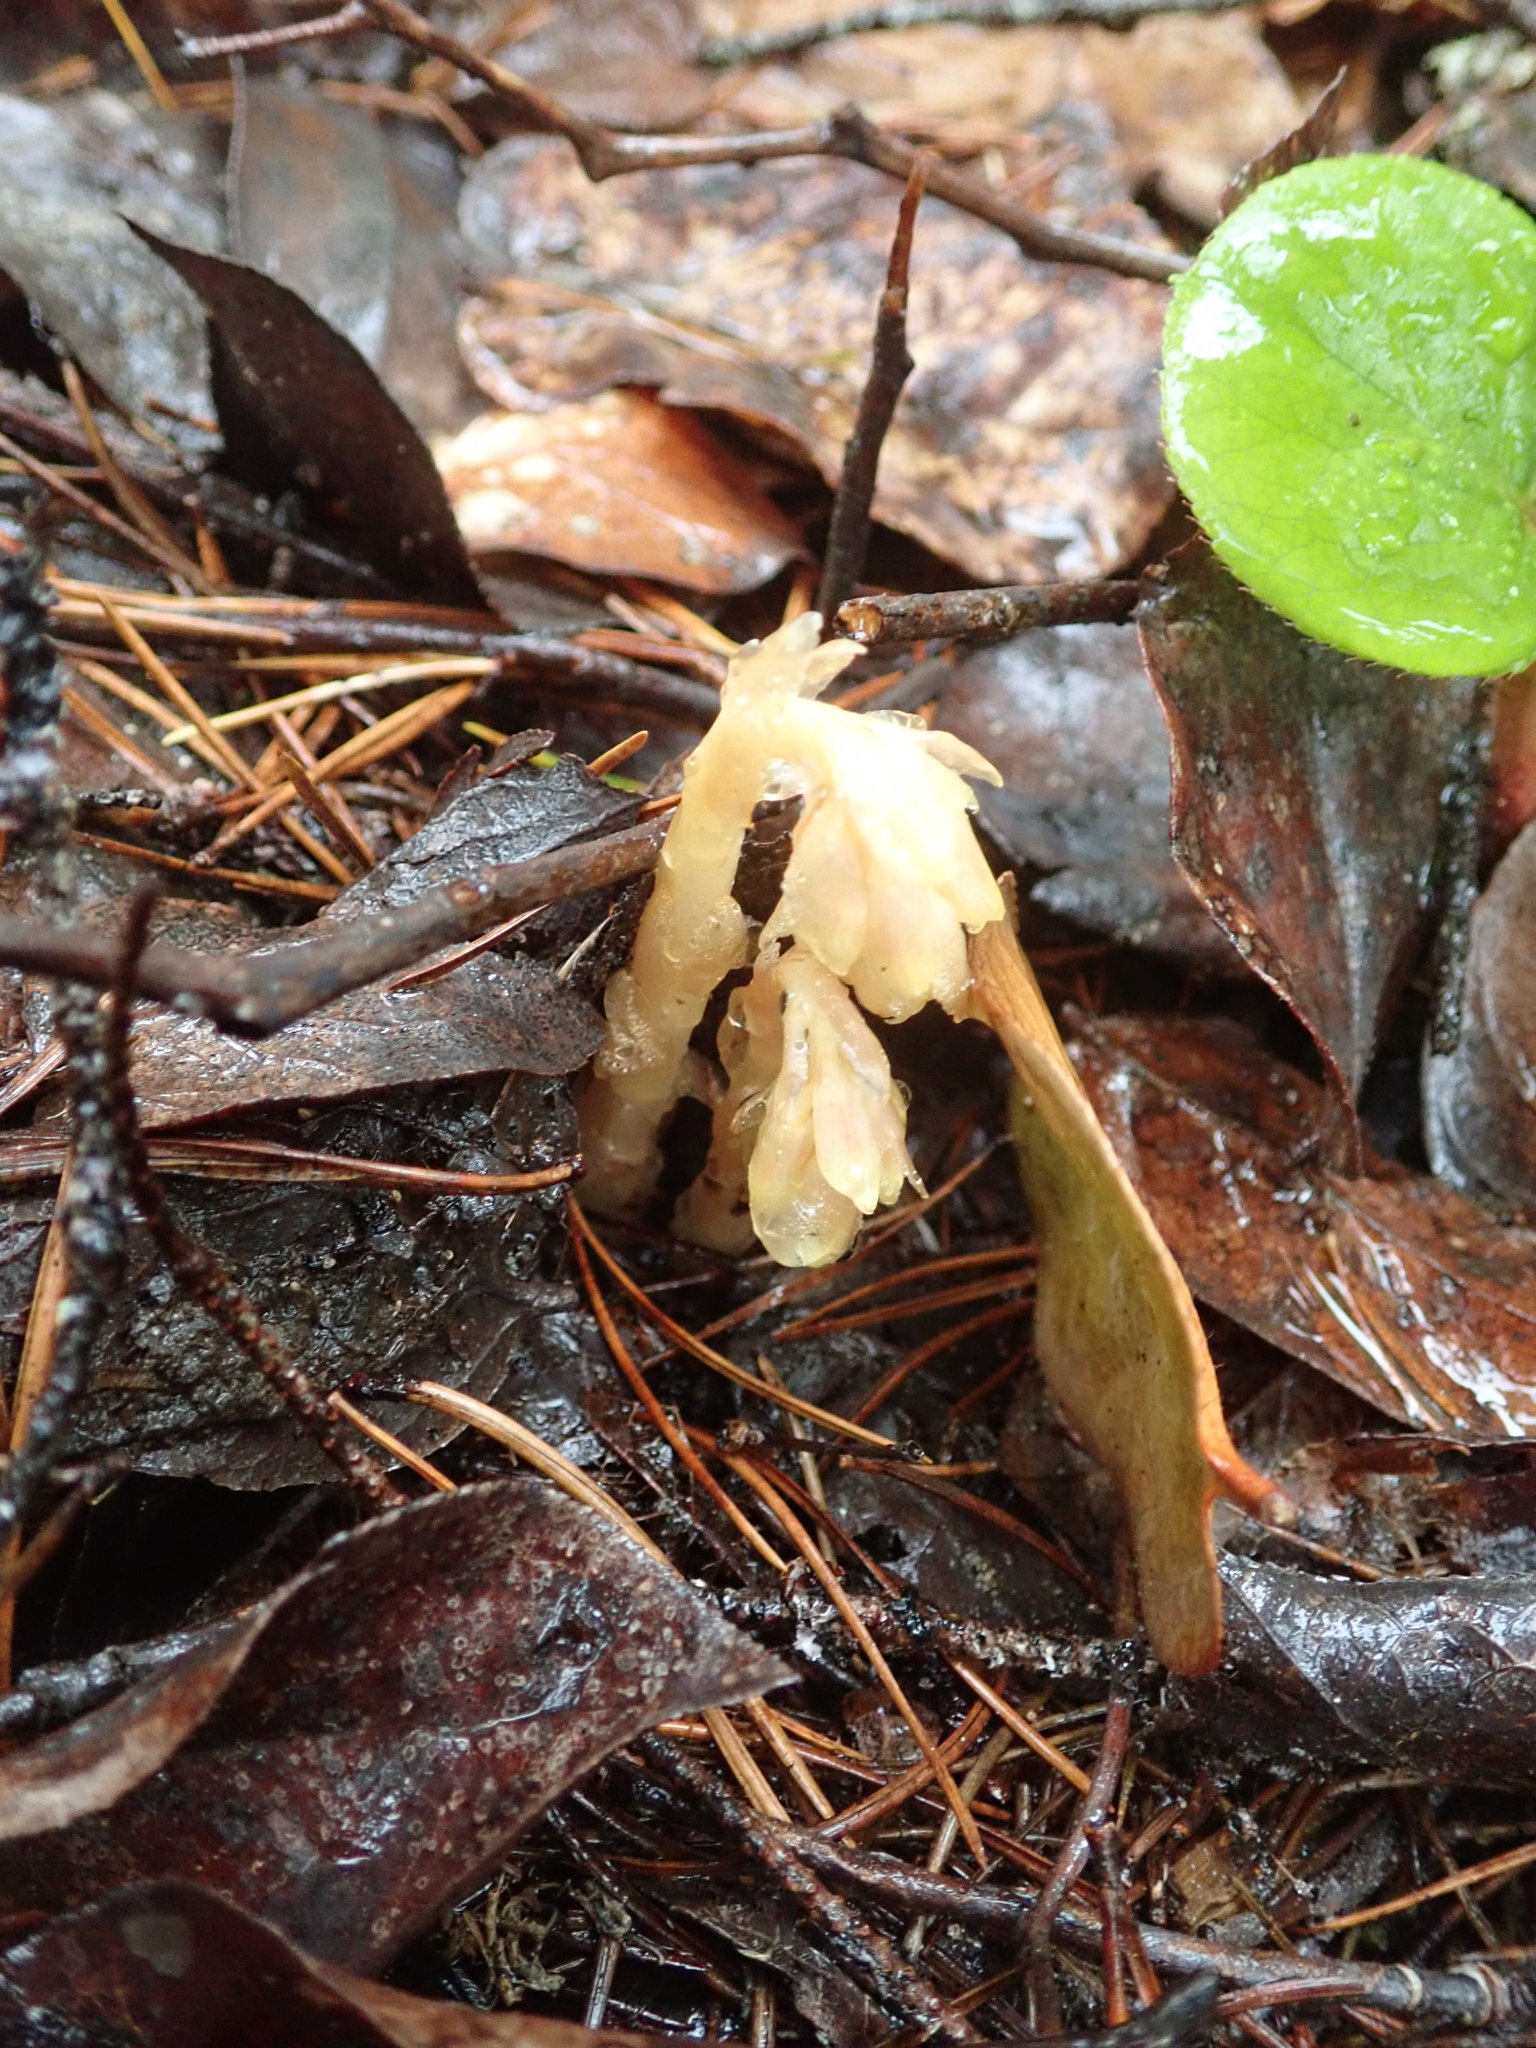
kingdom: Plantae
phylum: Tracheophyta
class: Magnoliopsida
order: Ericales
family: Ericaceae
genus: Hypopitys
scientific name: Hypopitys monotropa
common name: Yellow bird's-nest
